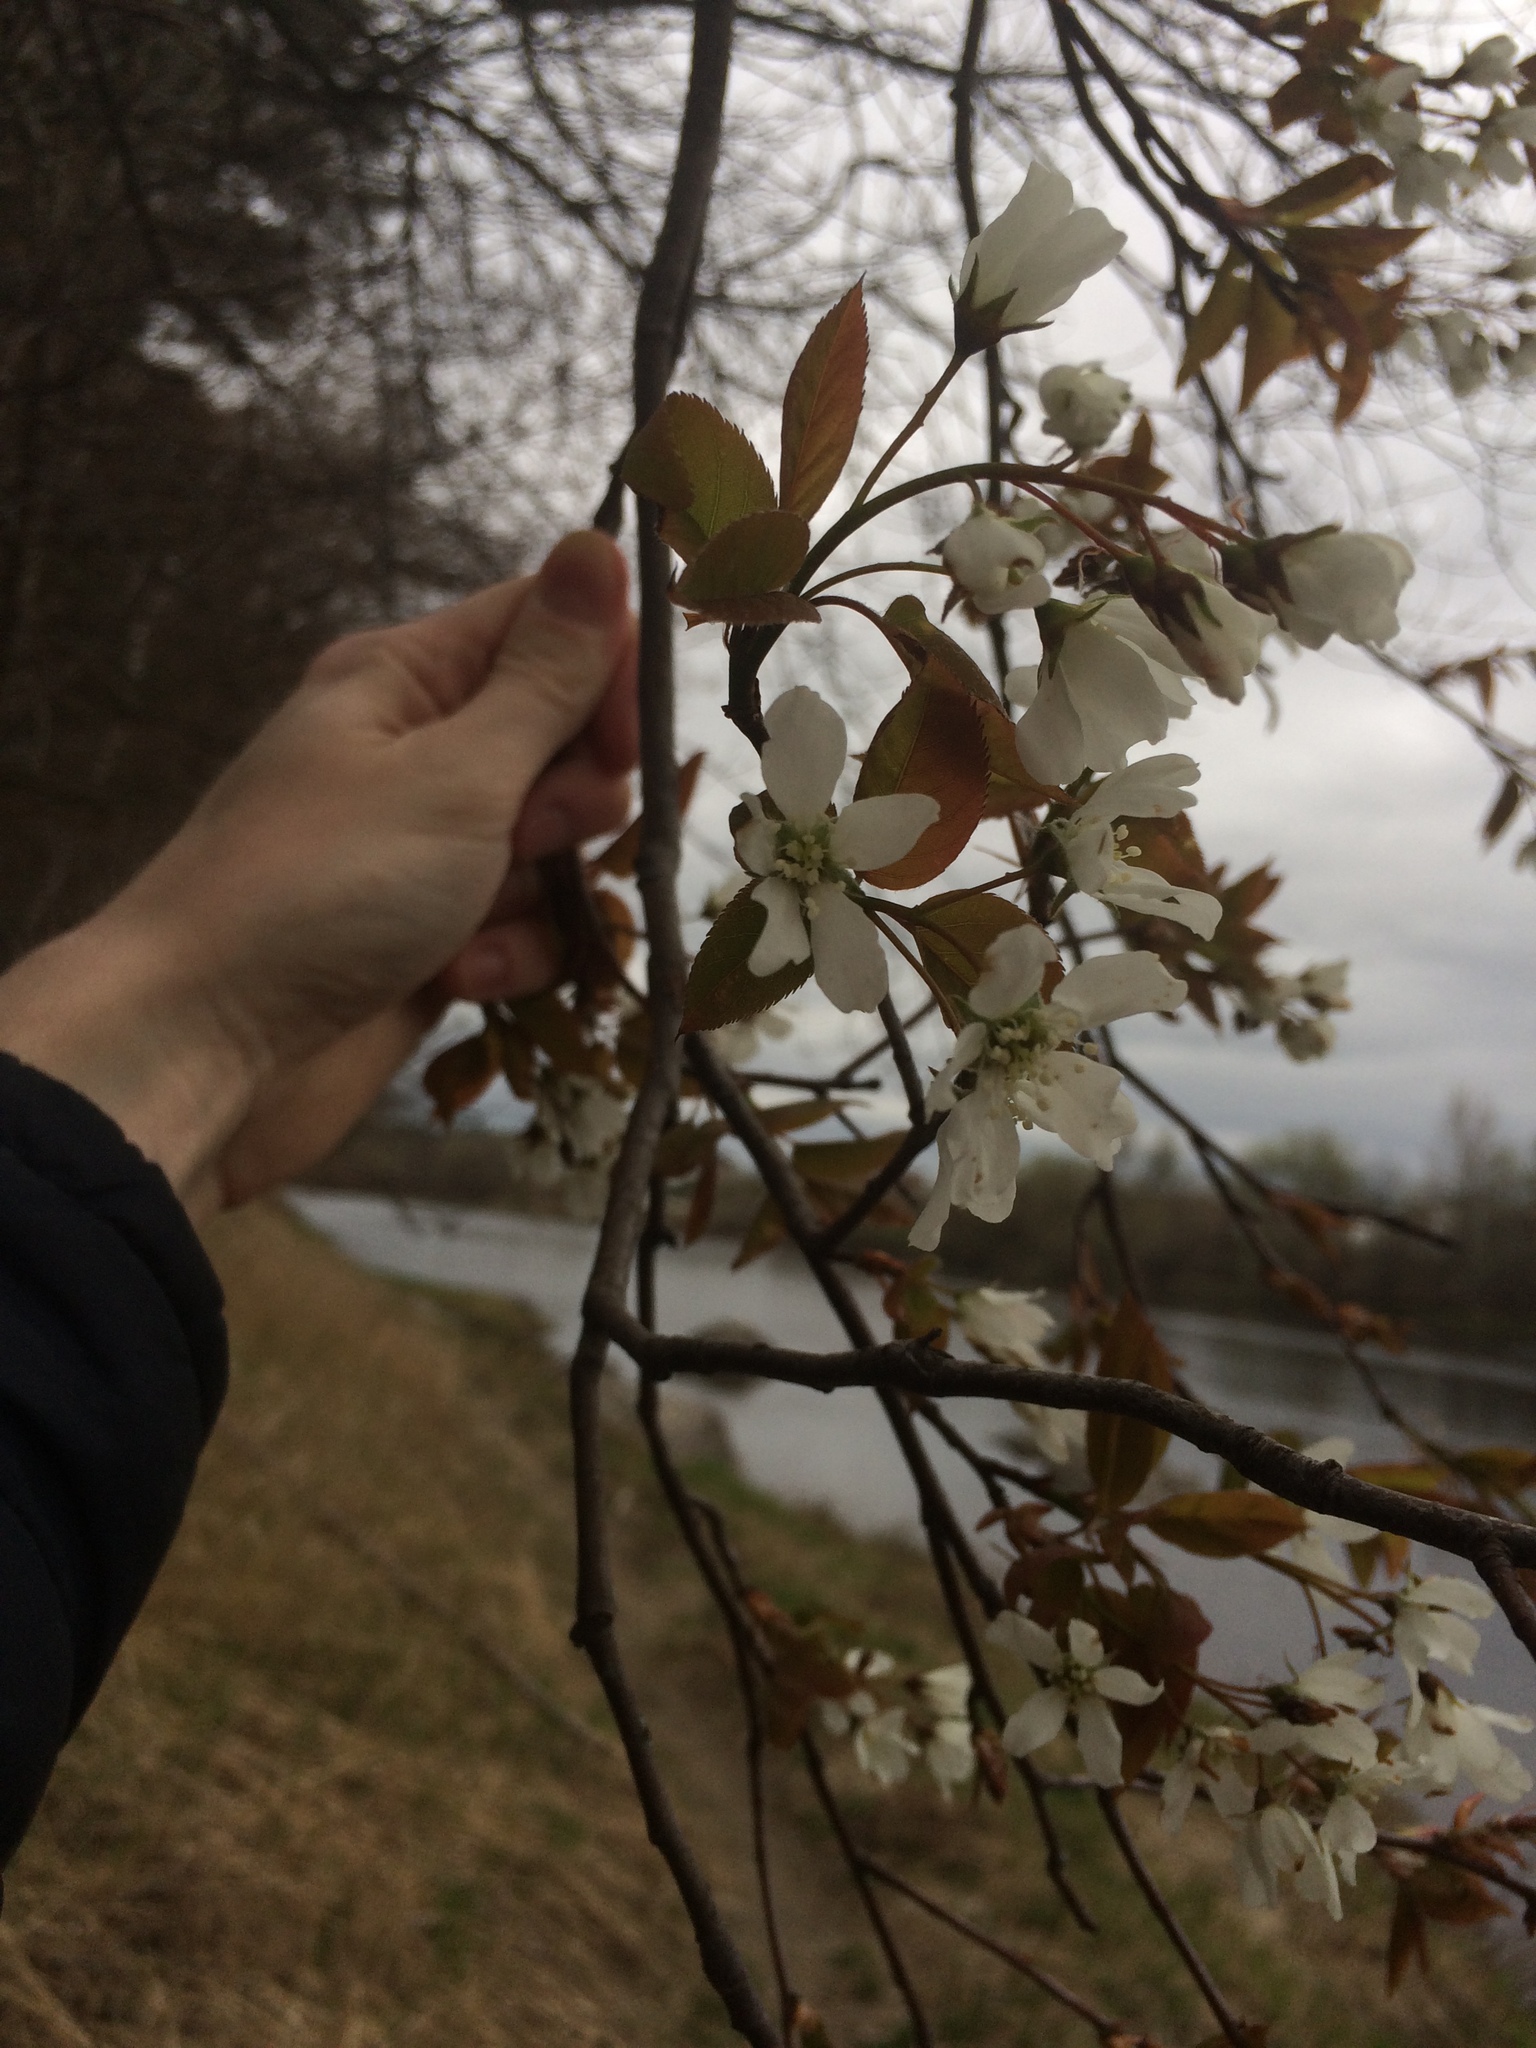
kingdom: Plantae
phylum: Tracheophyta
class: Magnoliopsida
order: Rosales
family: Rosaceae
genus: Amelanchier
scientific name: Amelanchier laevis
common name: Allegheny serviceberry
